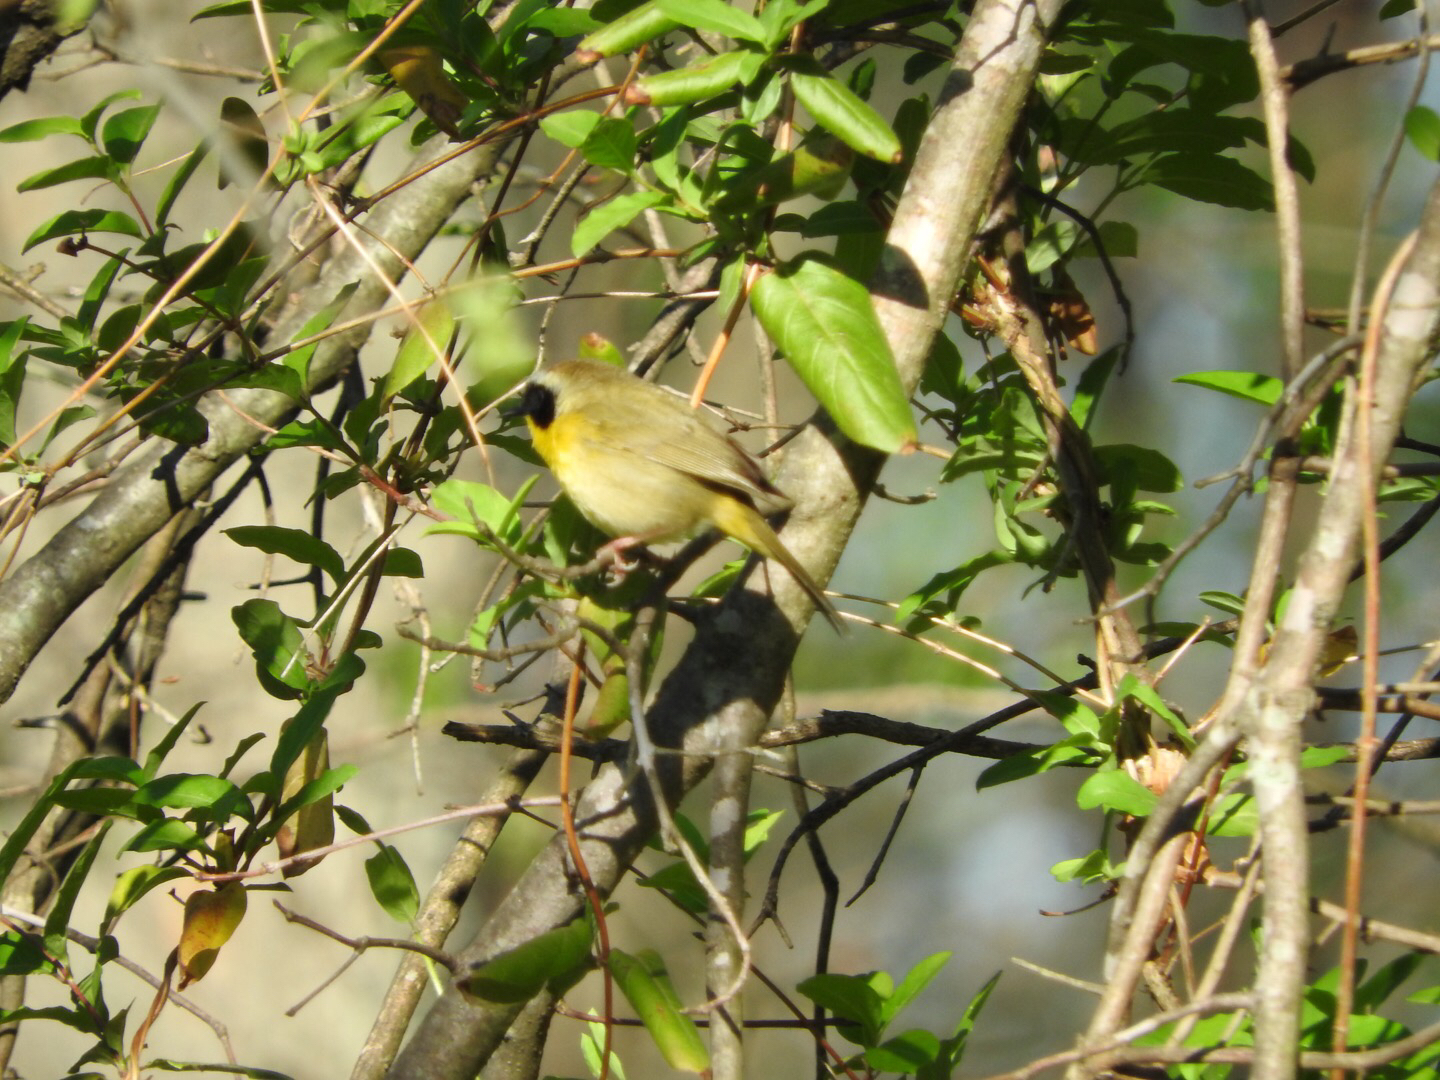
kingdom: Animalia
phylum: Chordata
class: Aves
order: Passeriformes
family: Parulidae
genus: Geothlypis
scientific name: Geothlypis trichas
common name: Common yellowthroat
